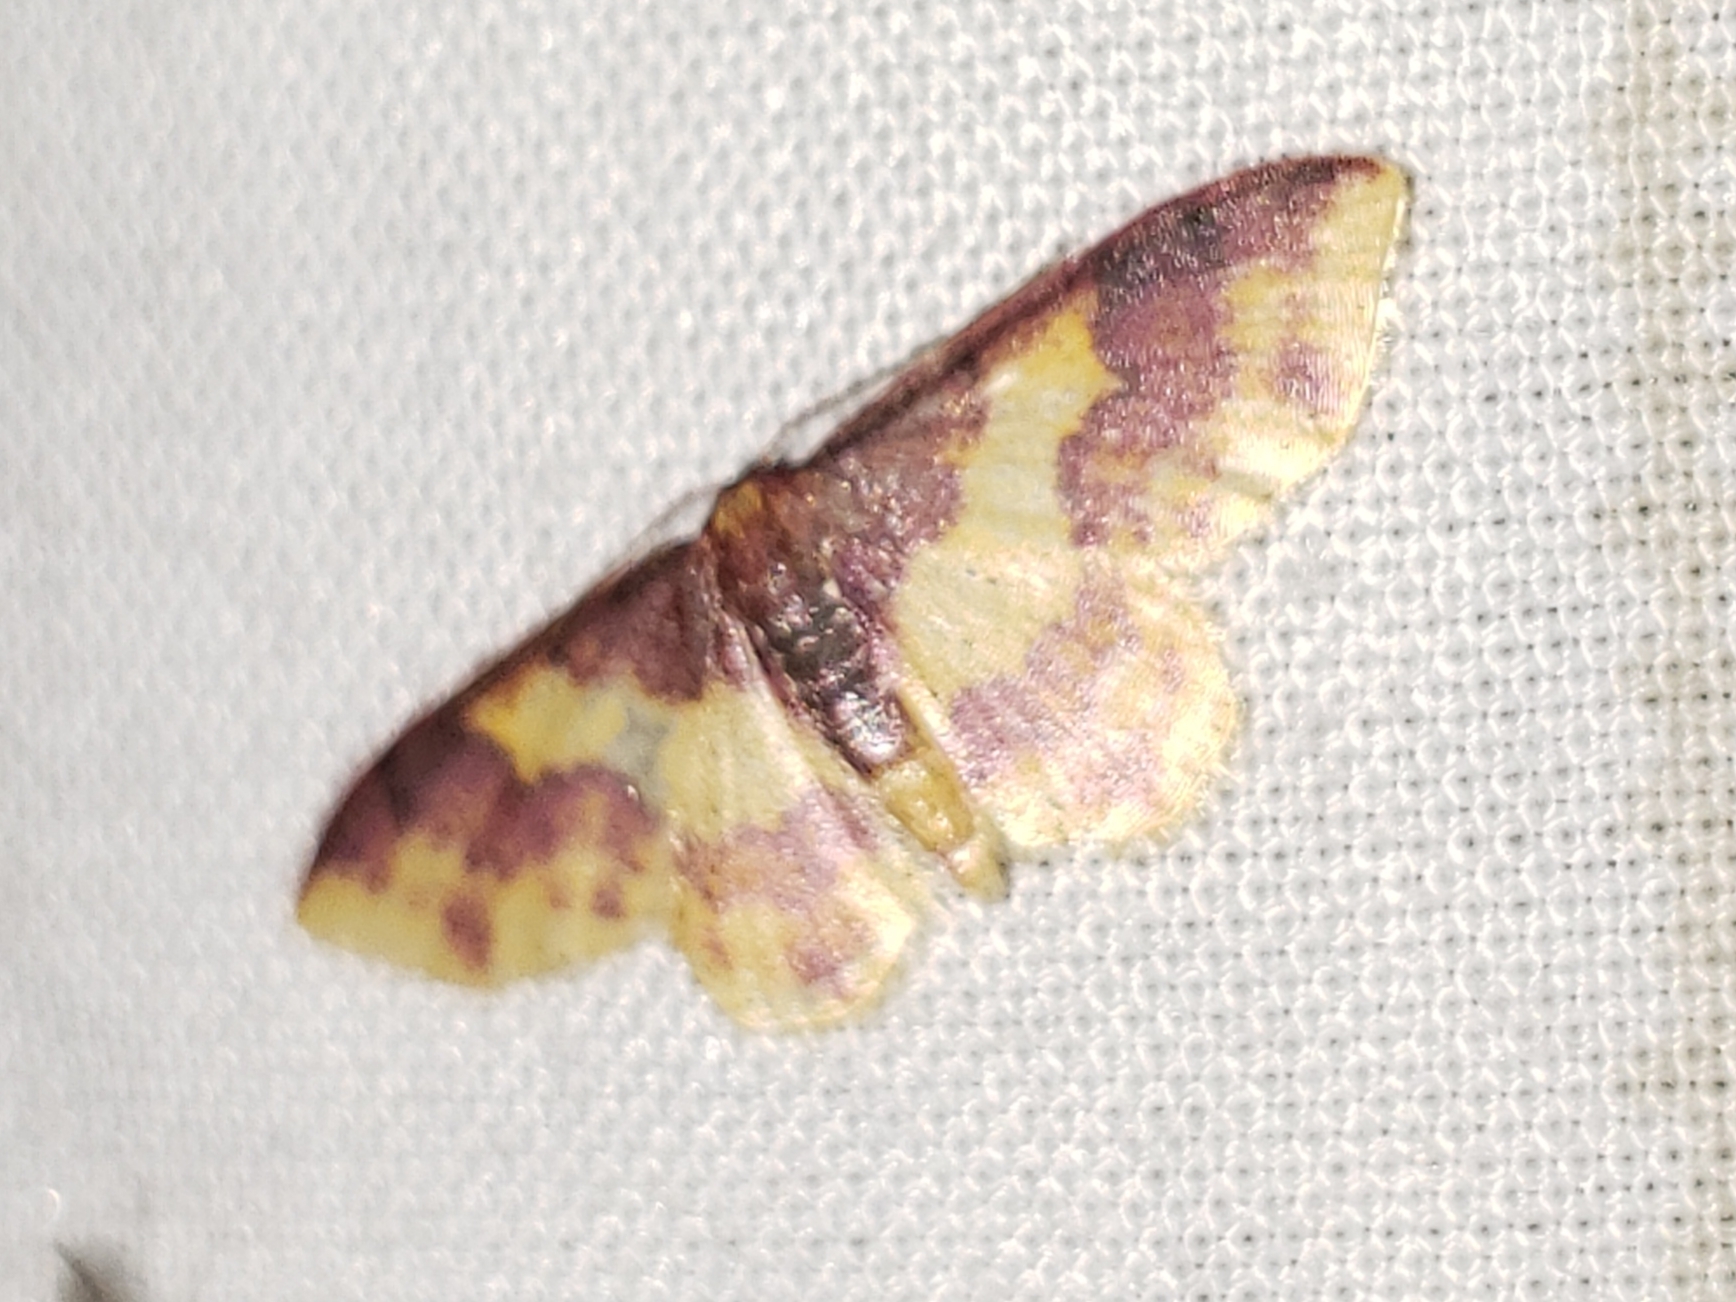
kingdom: Animalia
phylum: Arthropoda
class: Insecta
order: Lepidoptera
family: Geometridae
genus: Lophosis
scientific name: Lophosis labeculata
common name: Stained lophosis moth
